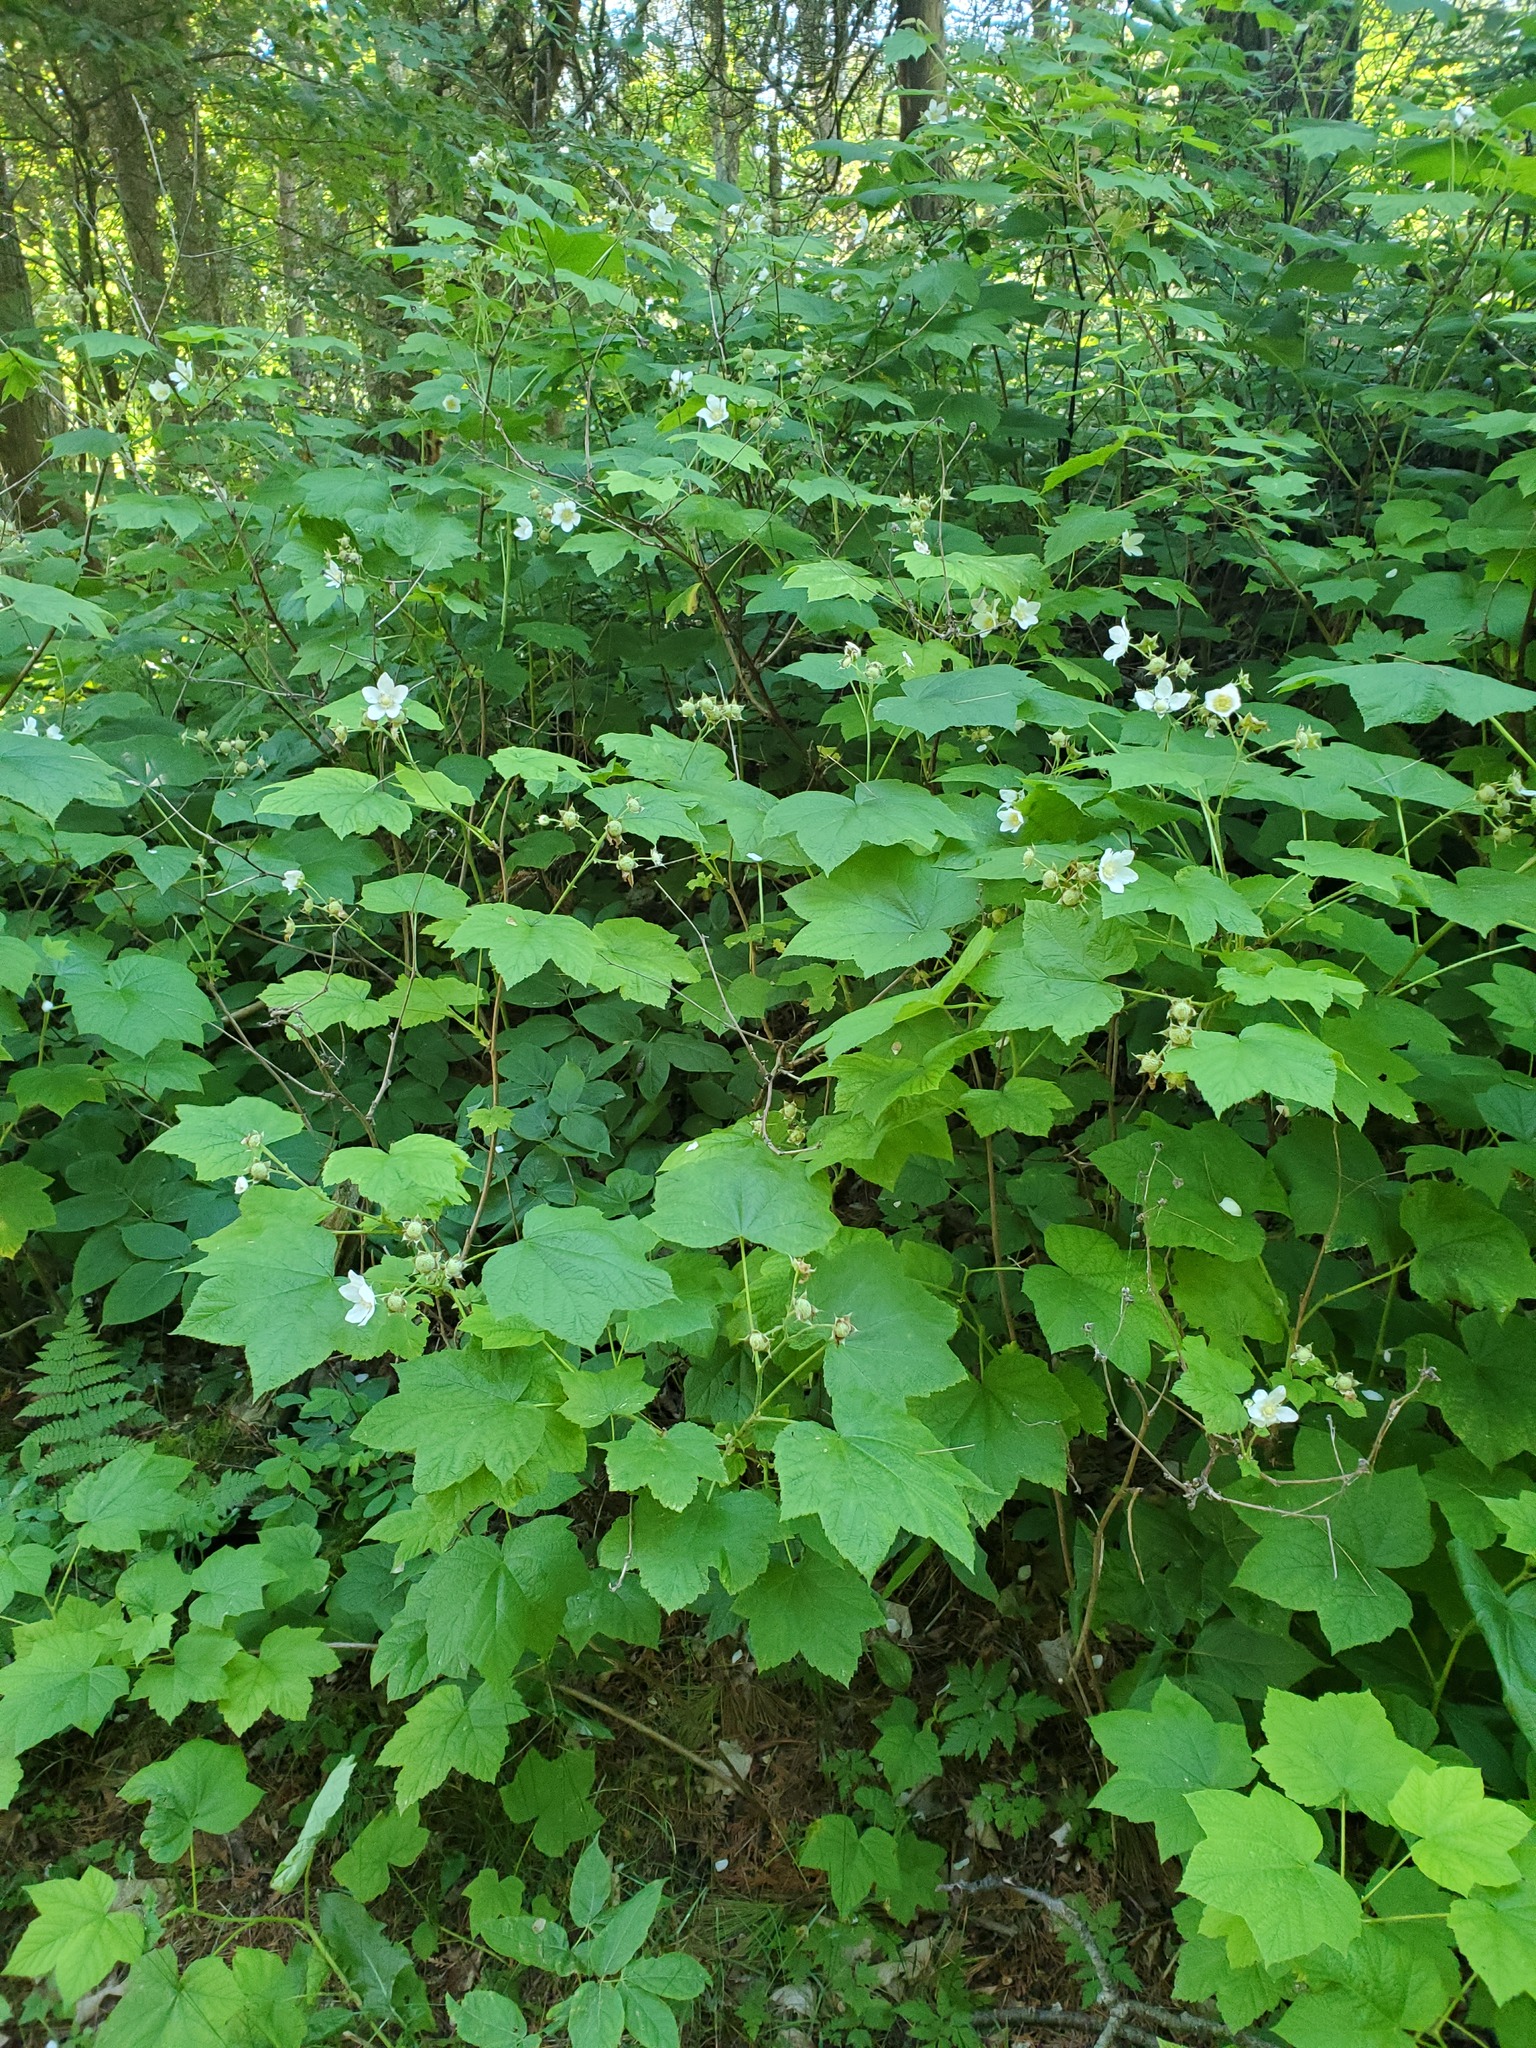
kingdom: Plantae
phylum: Tracheophyta
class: Magnoliopsida
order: Rosales
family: Rosaceae
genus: Rubus
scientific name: Rubus parviflorus
